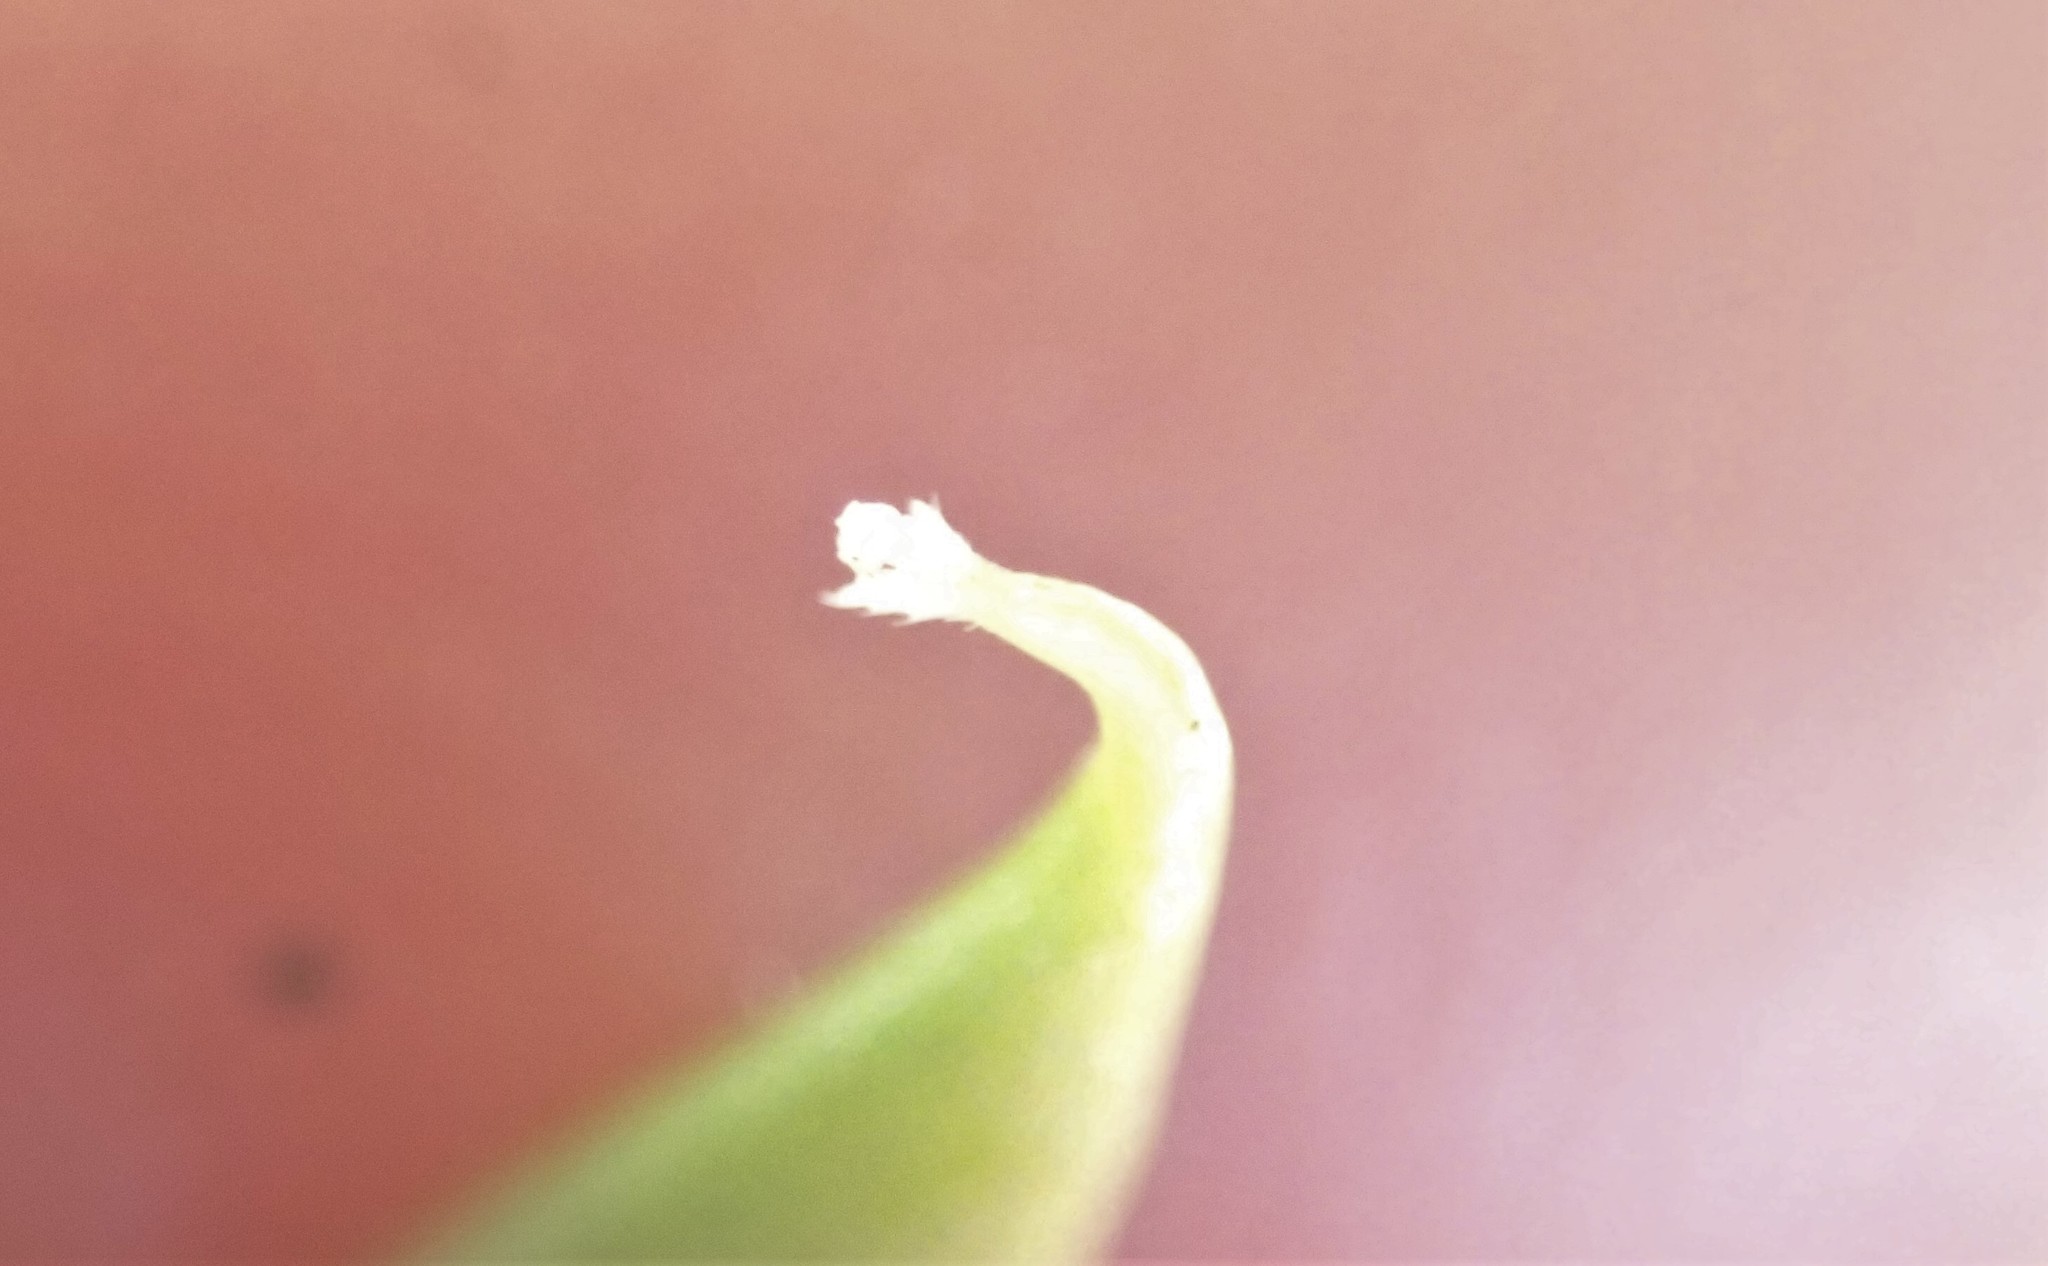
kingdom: Plantae
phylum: Tracheophyta
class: Magnoliopsida
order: Fabales
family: Fabaceae
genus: Vicia
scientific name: Vicia ludoviciana
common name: Louisiana vetch
